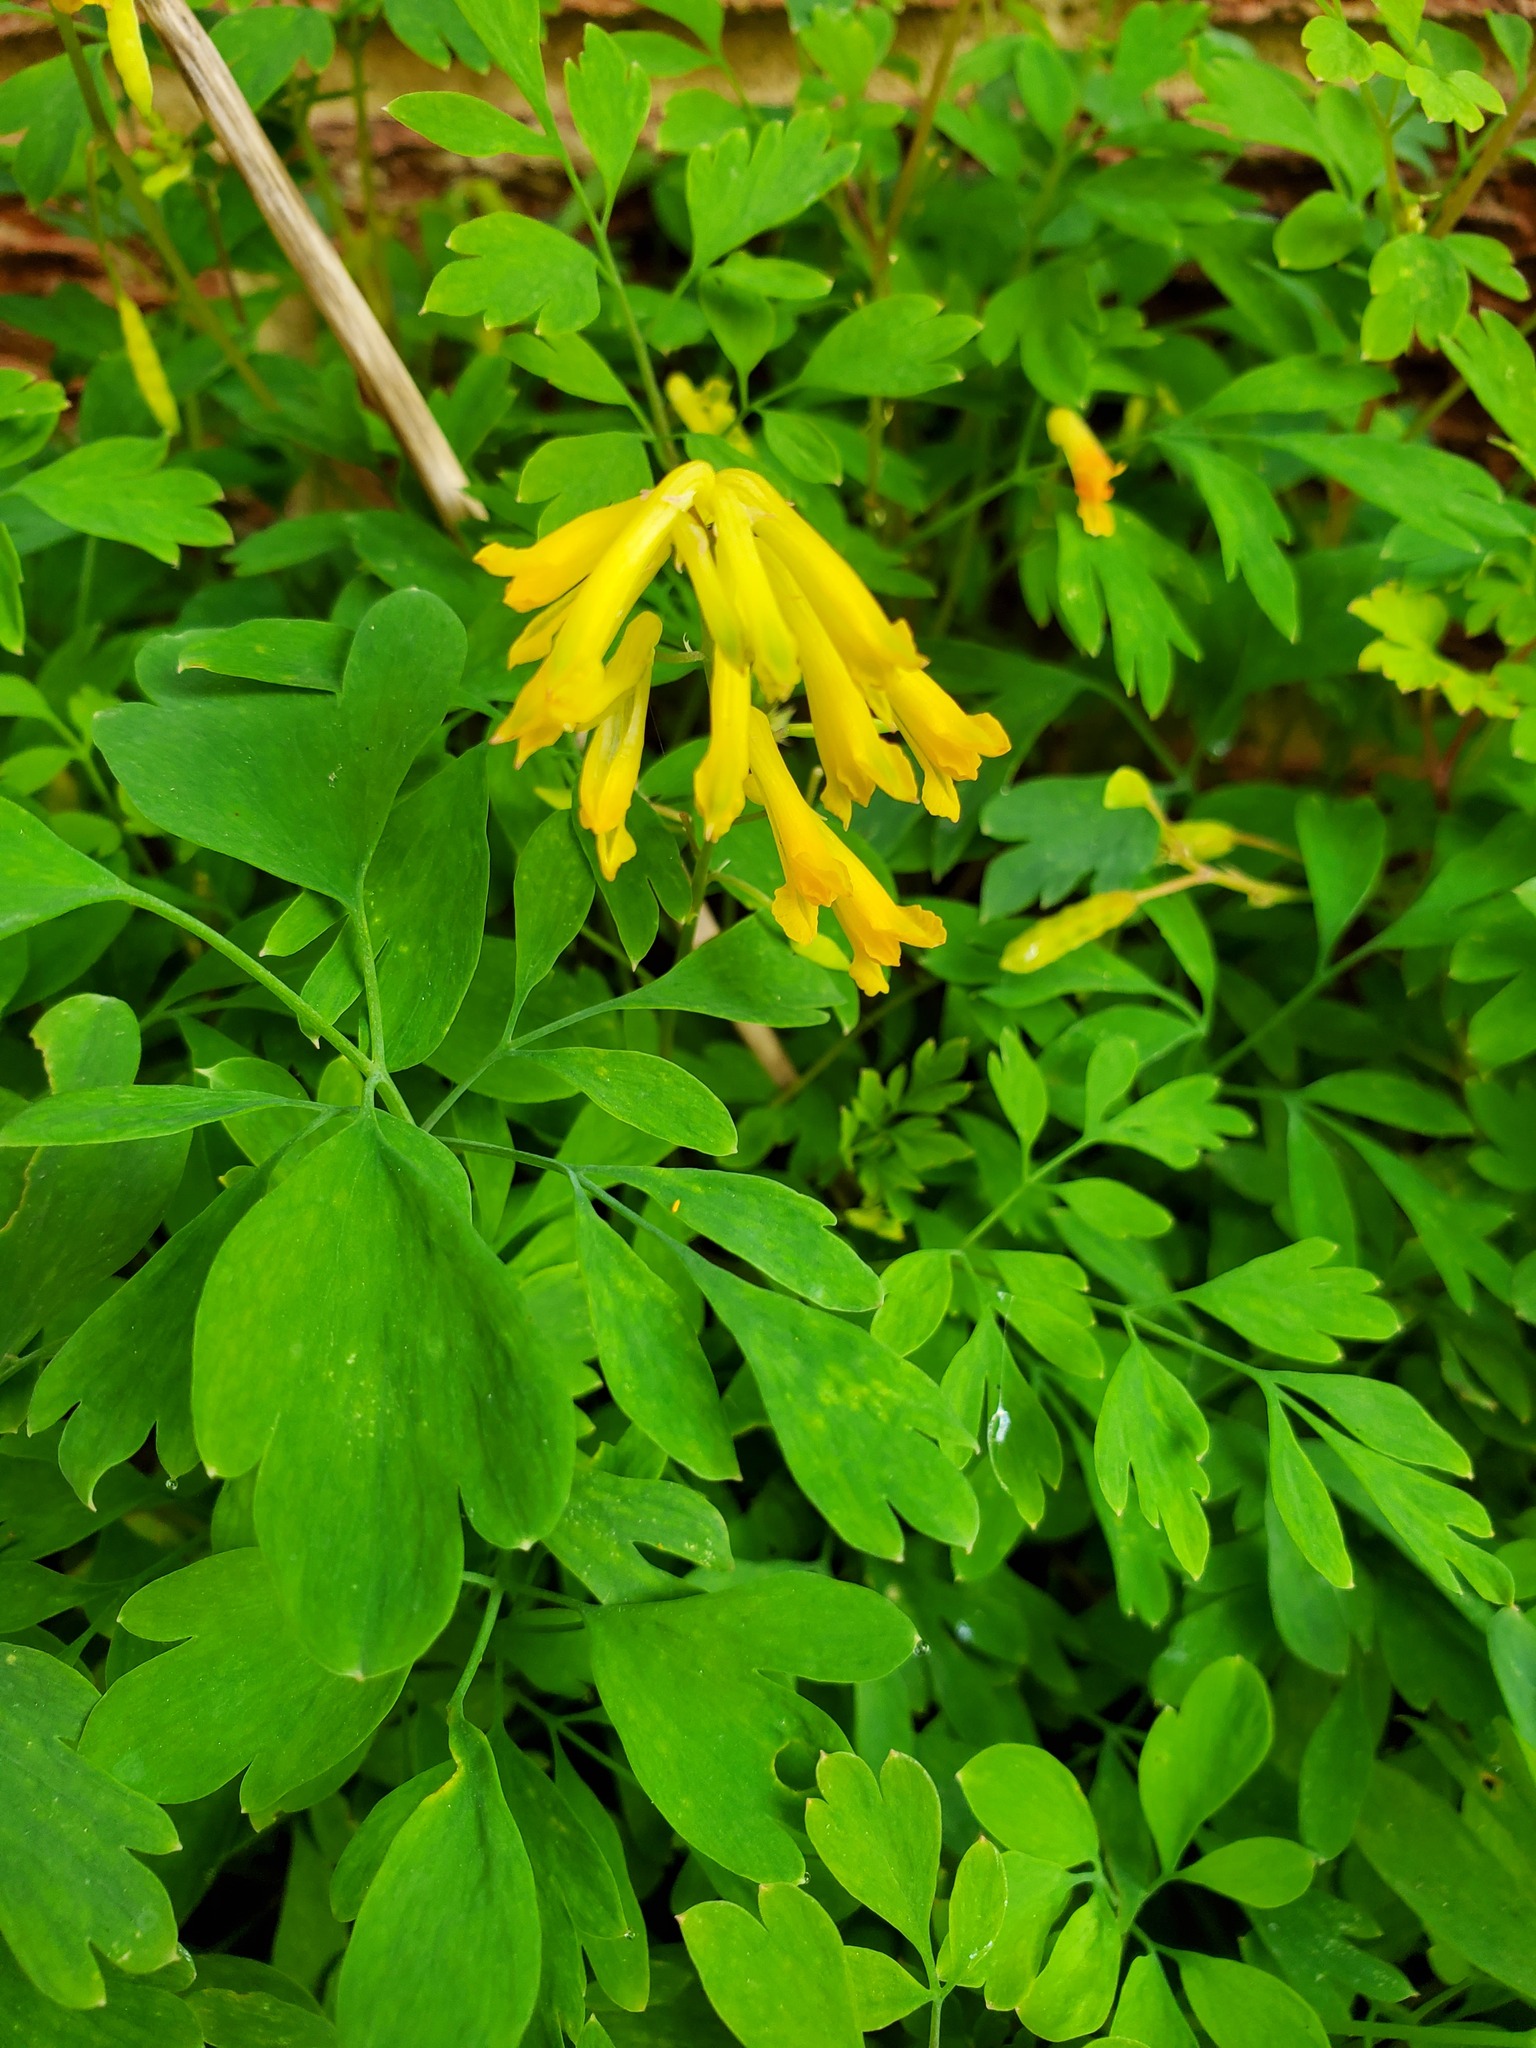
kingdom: Plantae
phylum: Tracheophyta
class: Magnoliopsida
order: Ranunculales
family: Papaveraceae
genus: Pseudofumaria
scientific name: Pseudofumaria lutea
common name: Yellow corydalis
